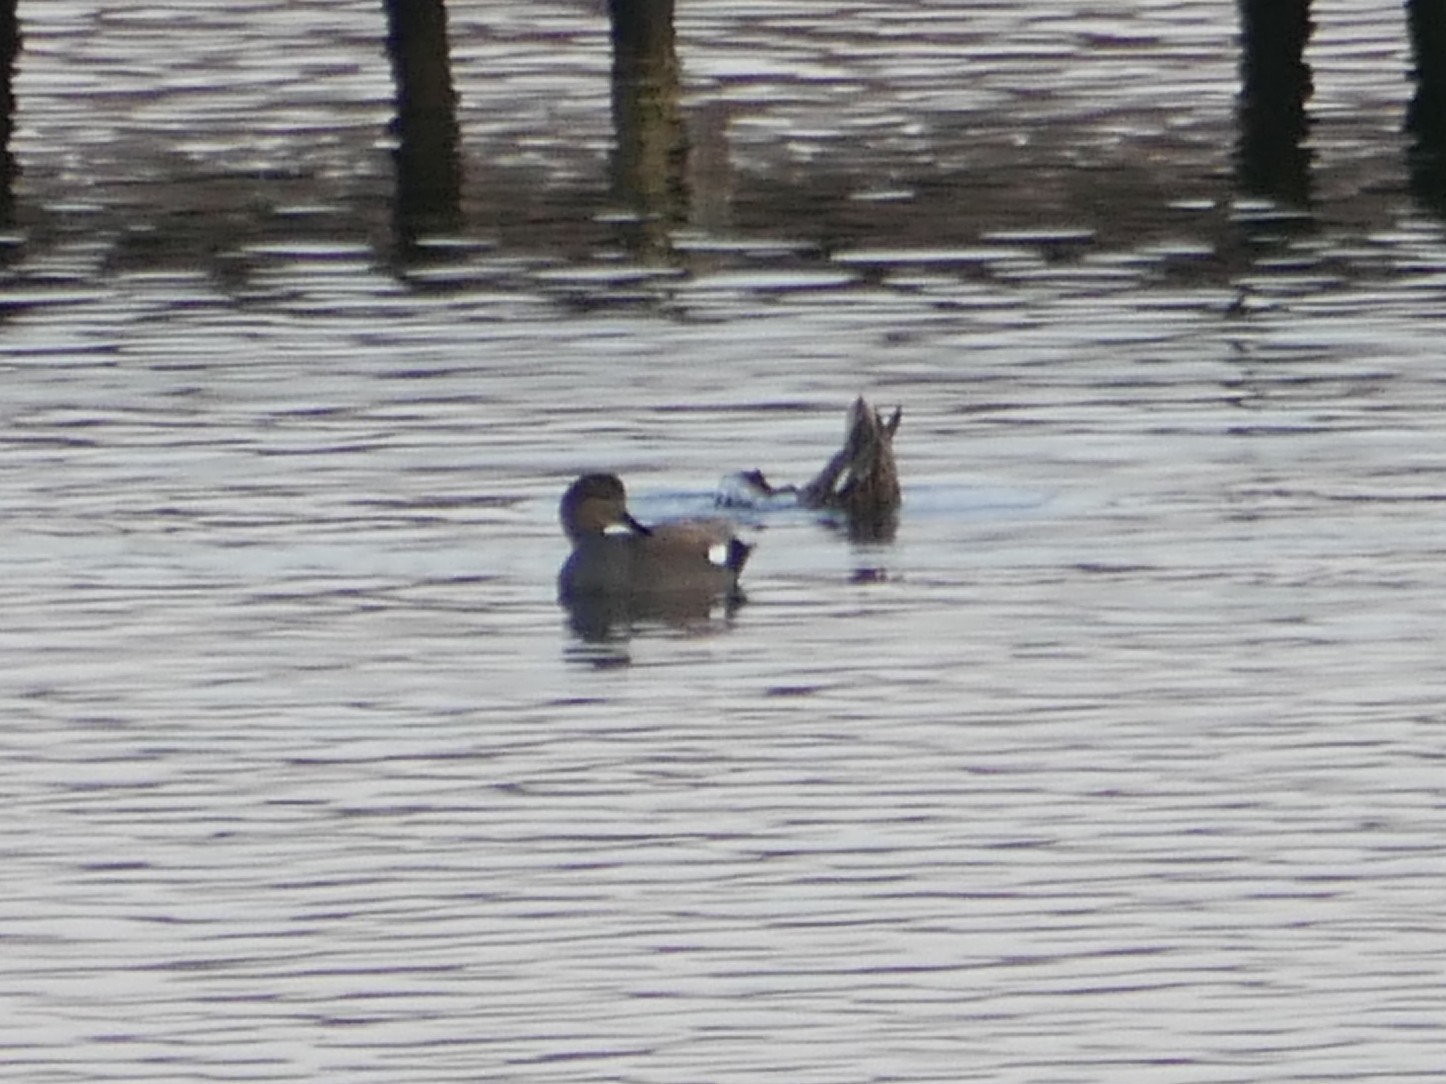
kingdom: Animalia
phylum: Chordata
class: Aves
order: Anseriformes
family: Anatidae
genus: Mareca
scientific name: Mareca strepera
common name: Gadwall
